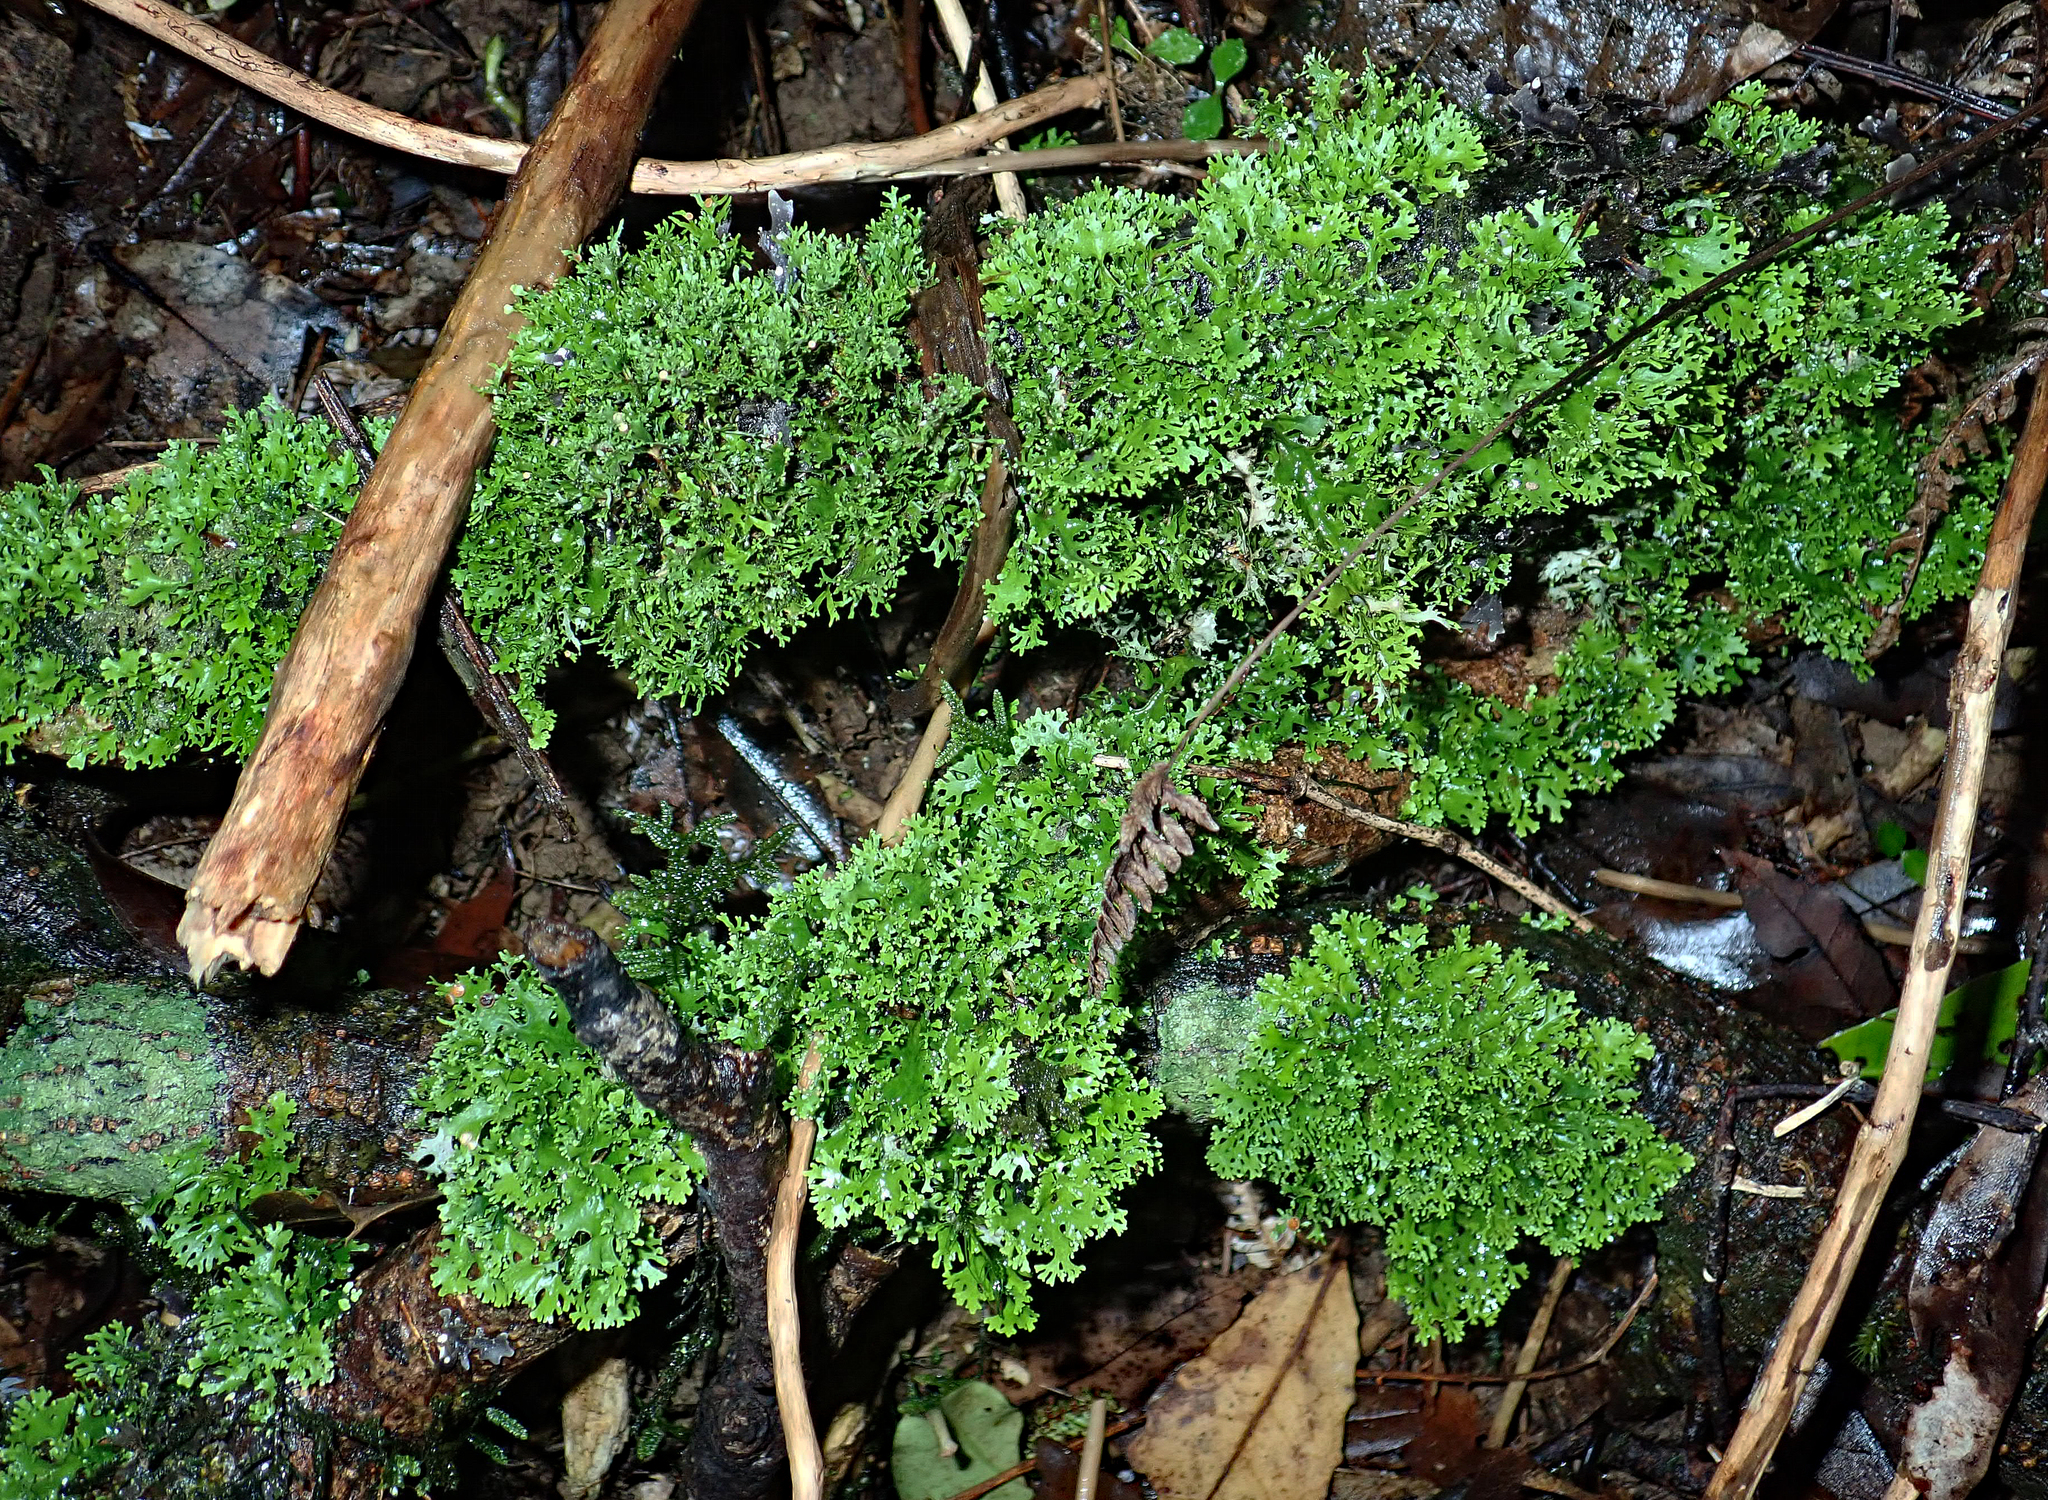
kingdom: Fungi
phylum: Ascomycota
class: Lecanoromycetes
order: Peltigerales
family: Lobariaceae
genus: Sticta
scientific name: Sticta
